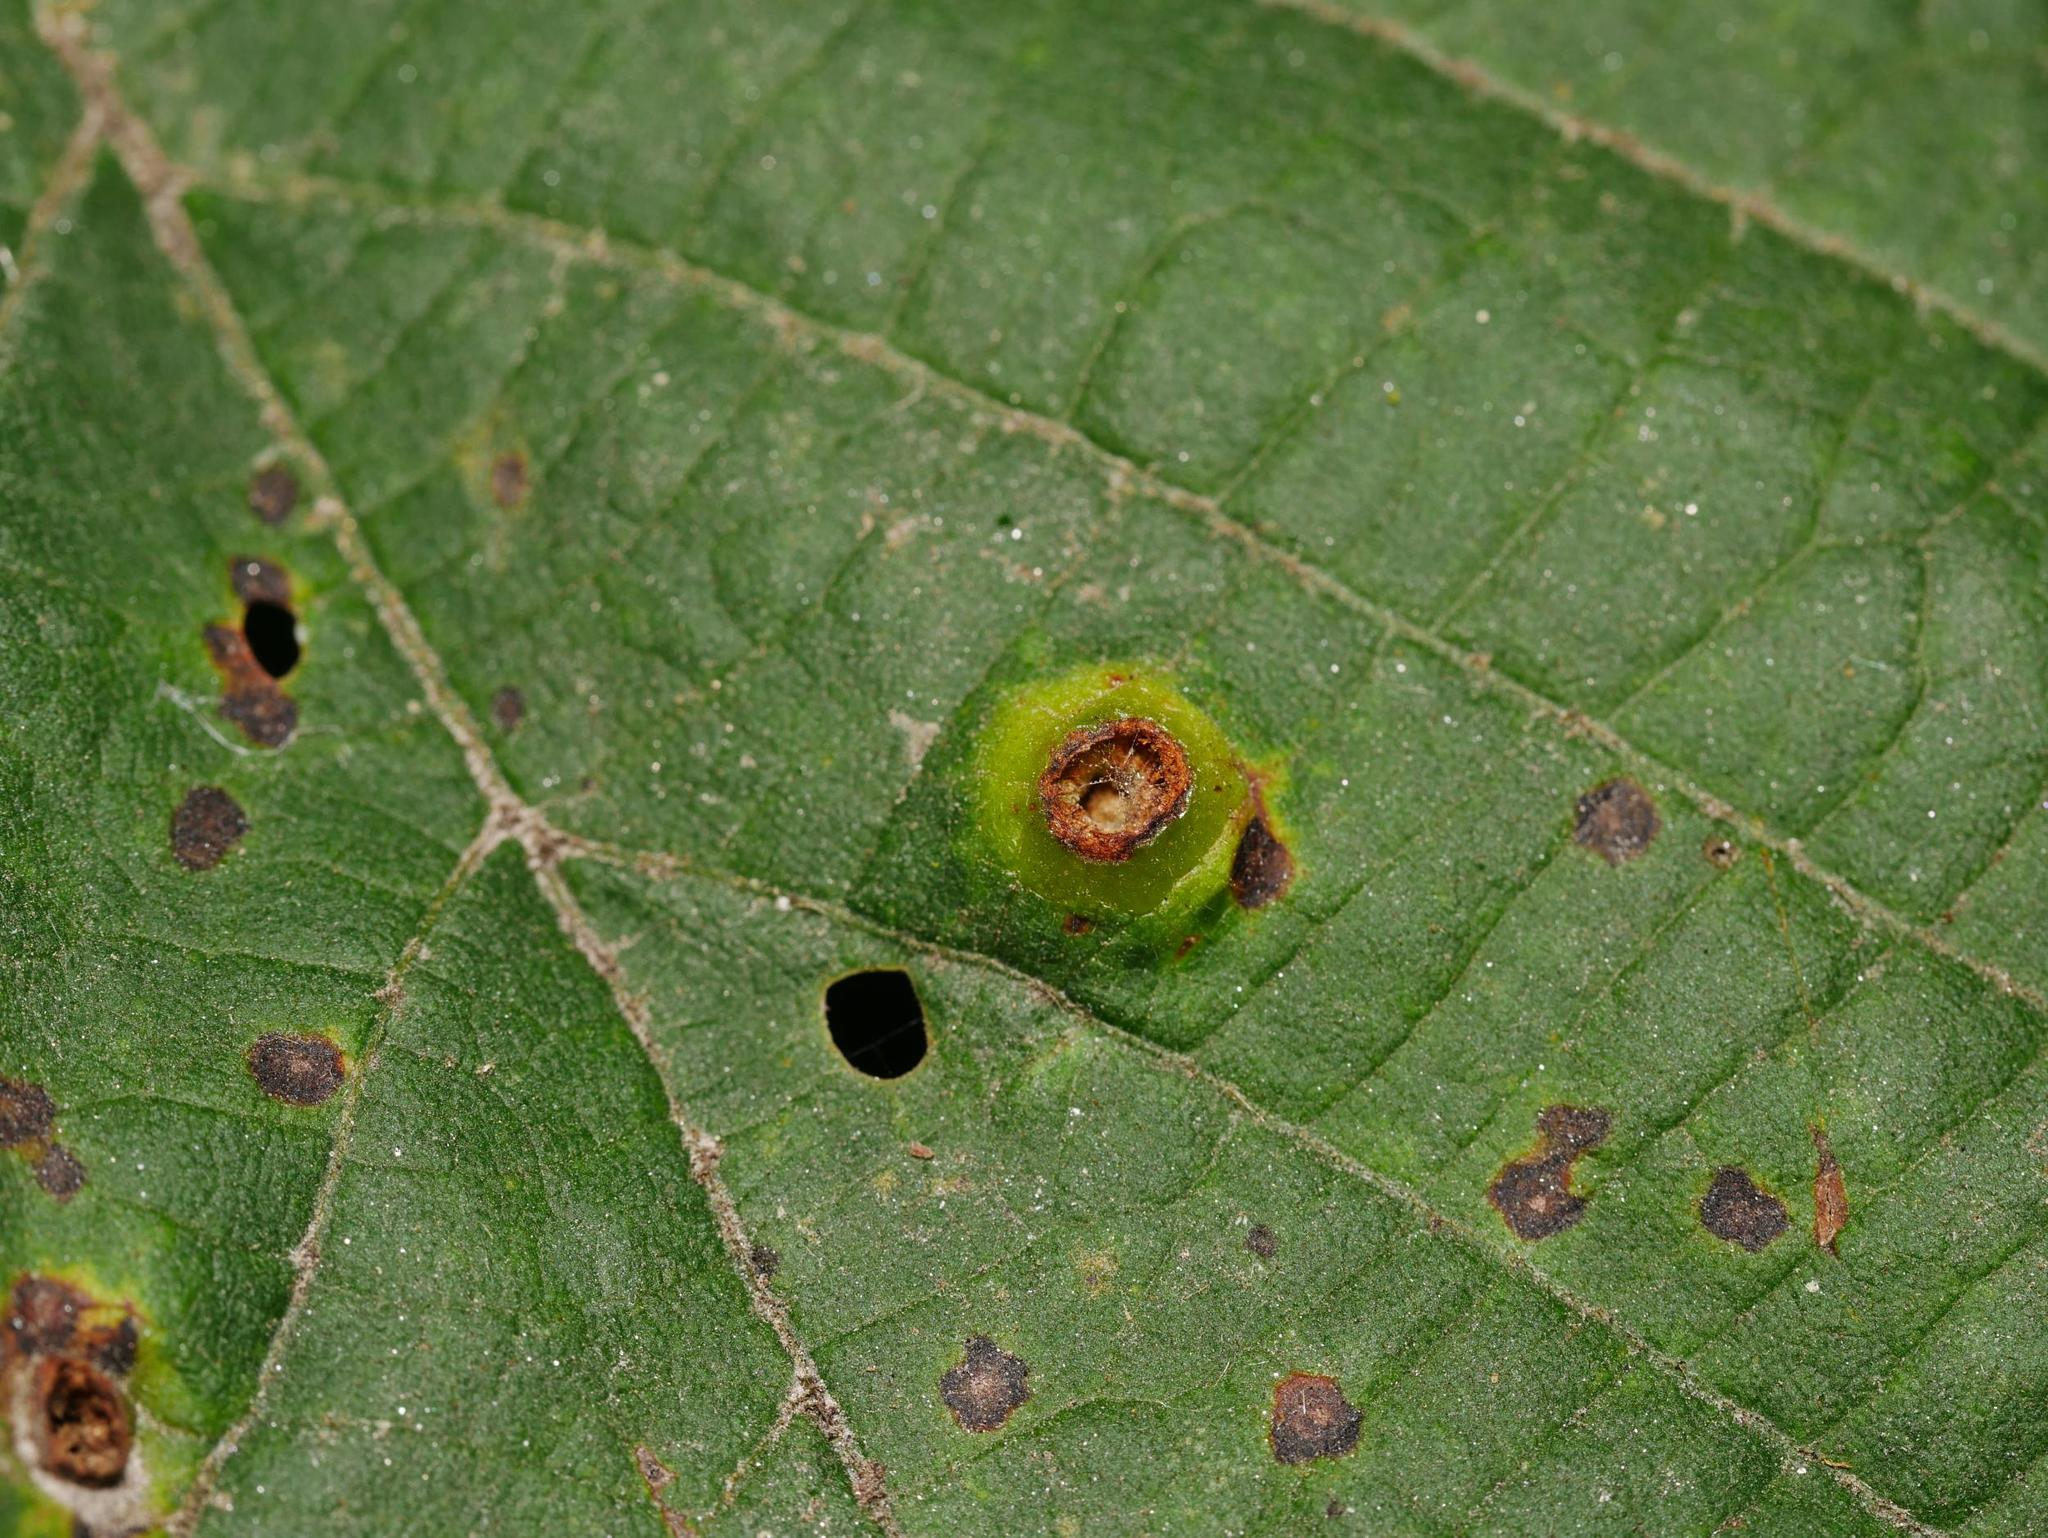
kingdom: Animalia
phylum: Arthropoda
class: Insecta
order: Diptera
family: Cecidomyiidae
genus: Didymomyia
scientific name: Didymomyia tiliacea
